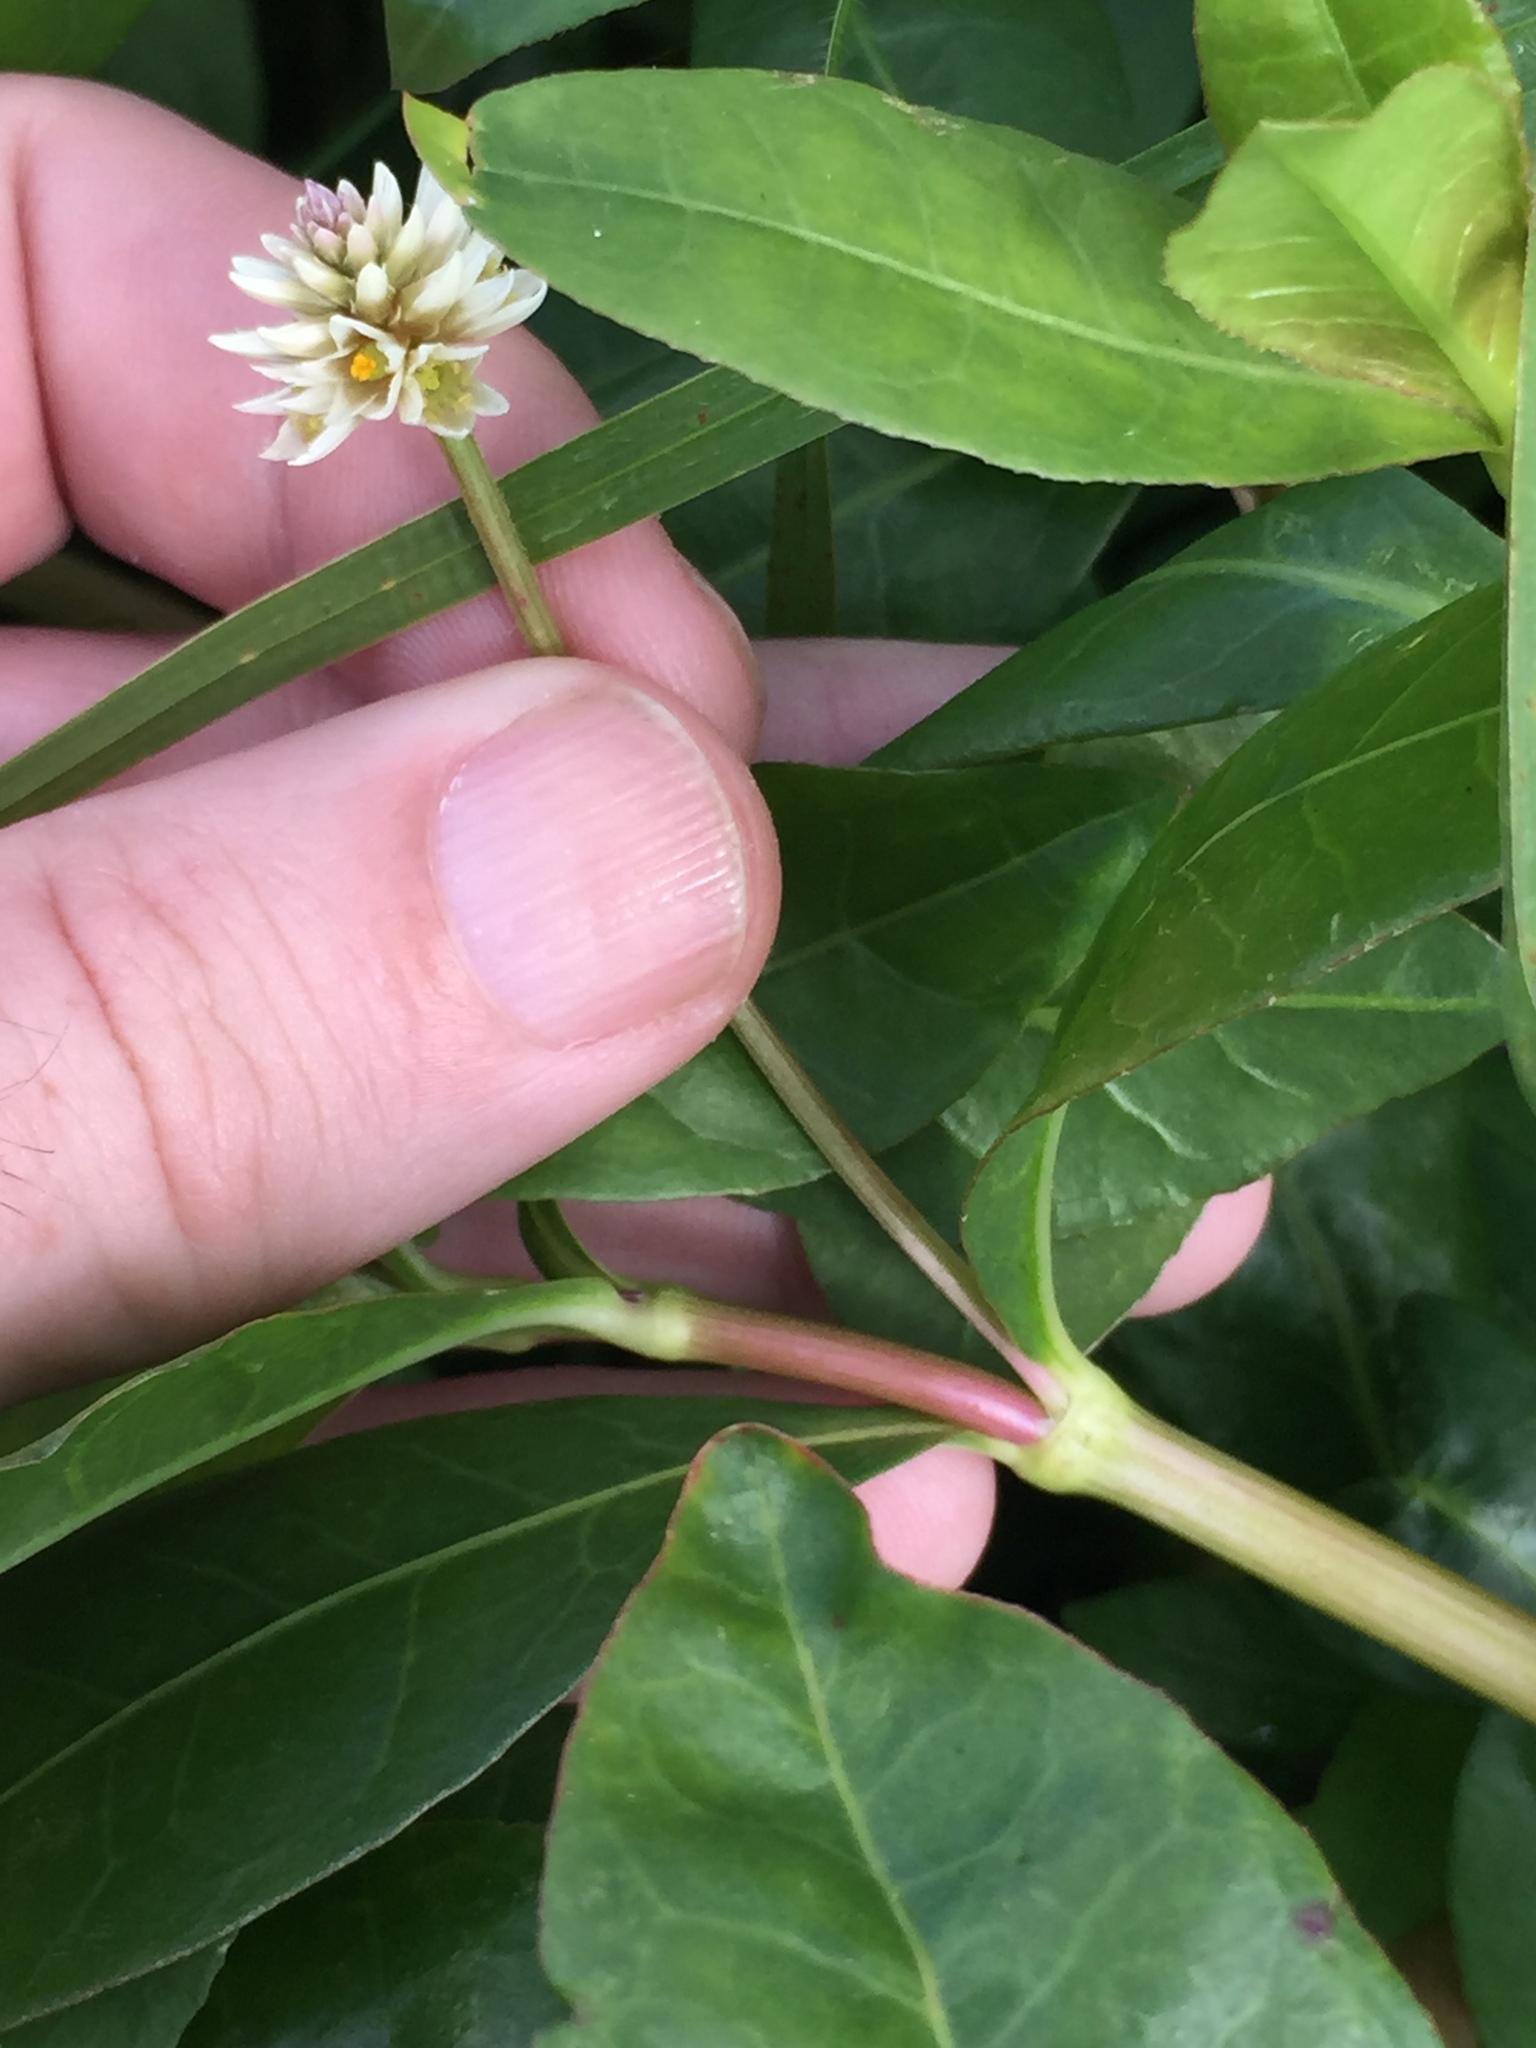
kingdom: Plantae
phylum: Tracheophyta
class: Magnoliopsida
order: Caryophyllales
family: Amaranthaceae
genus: Alternanthera
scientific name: Alternanthera philoxeroides
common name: Alligatorweed
